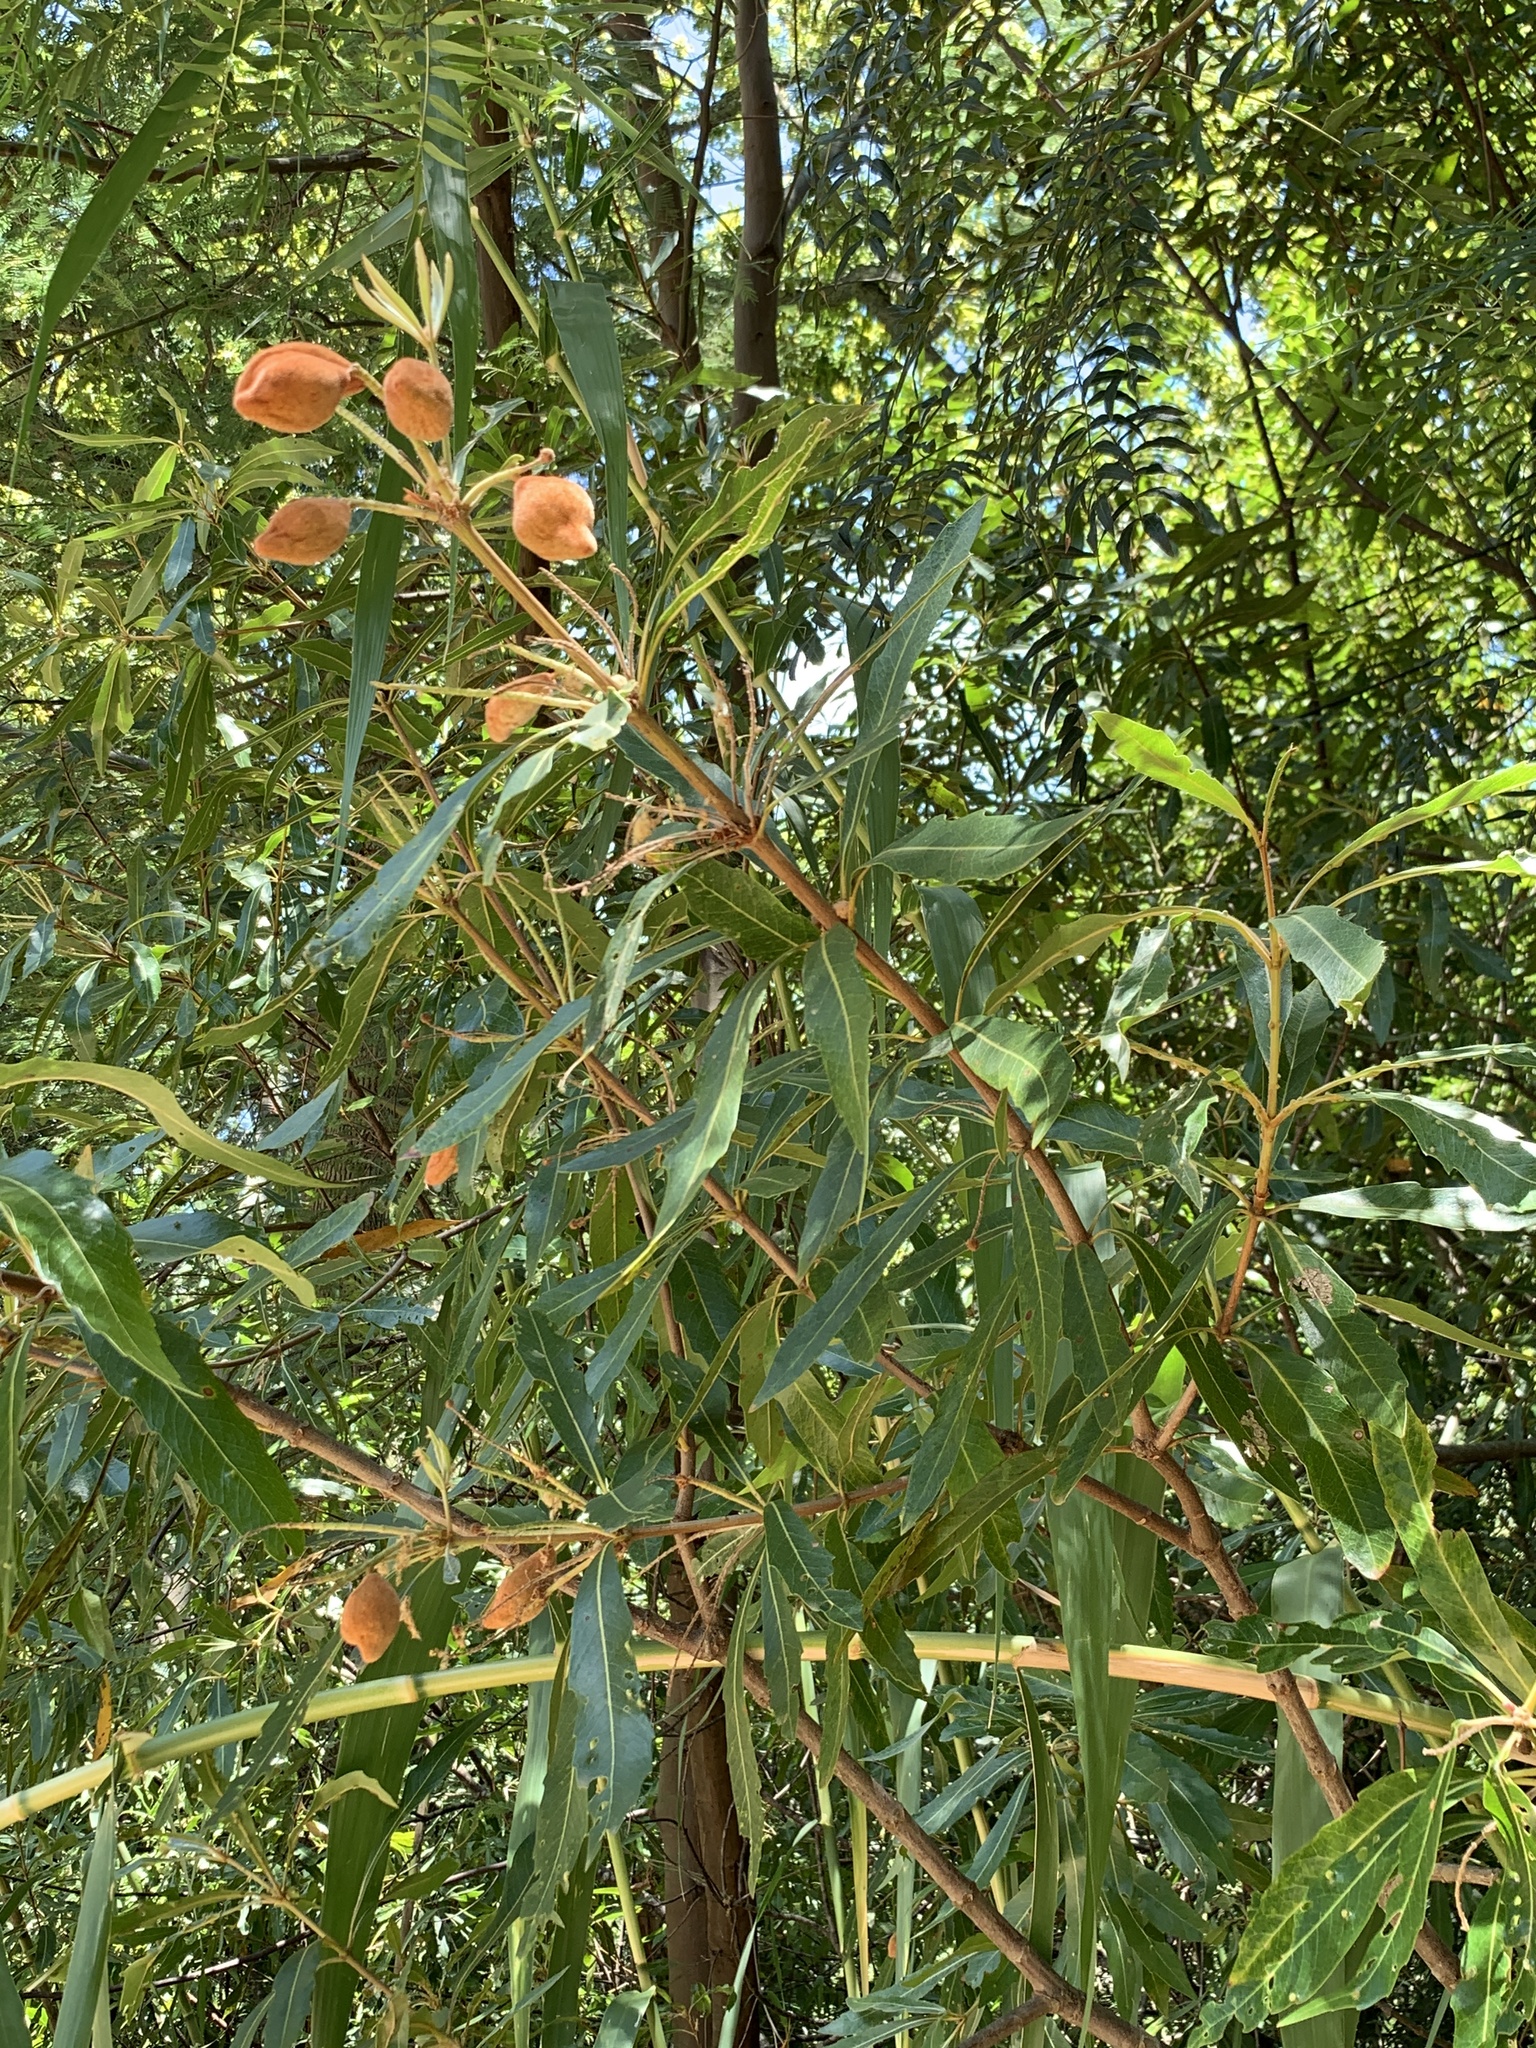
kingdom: Plantae
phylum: Tracheophyta
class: Magnoliopsida
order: Proteales
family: Proteaceae
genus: Brabejum
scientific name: Brabejum stellatifolium
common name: Wild almond
